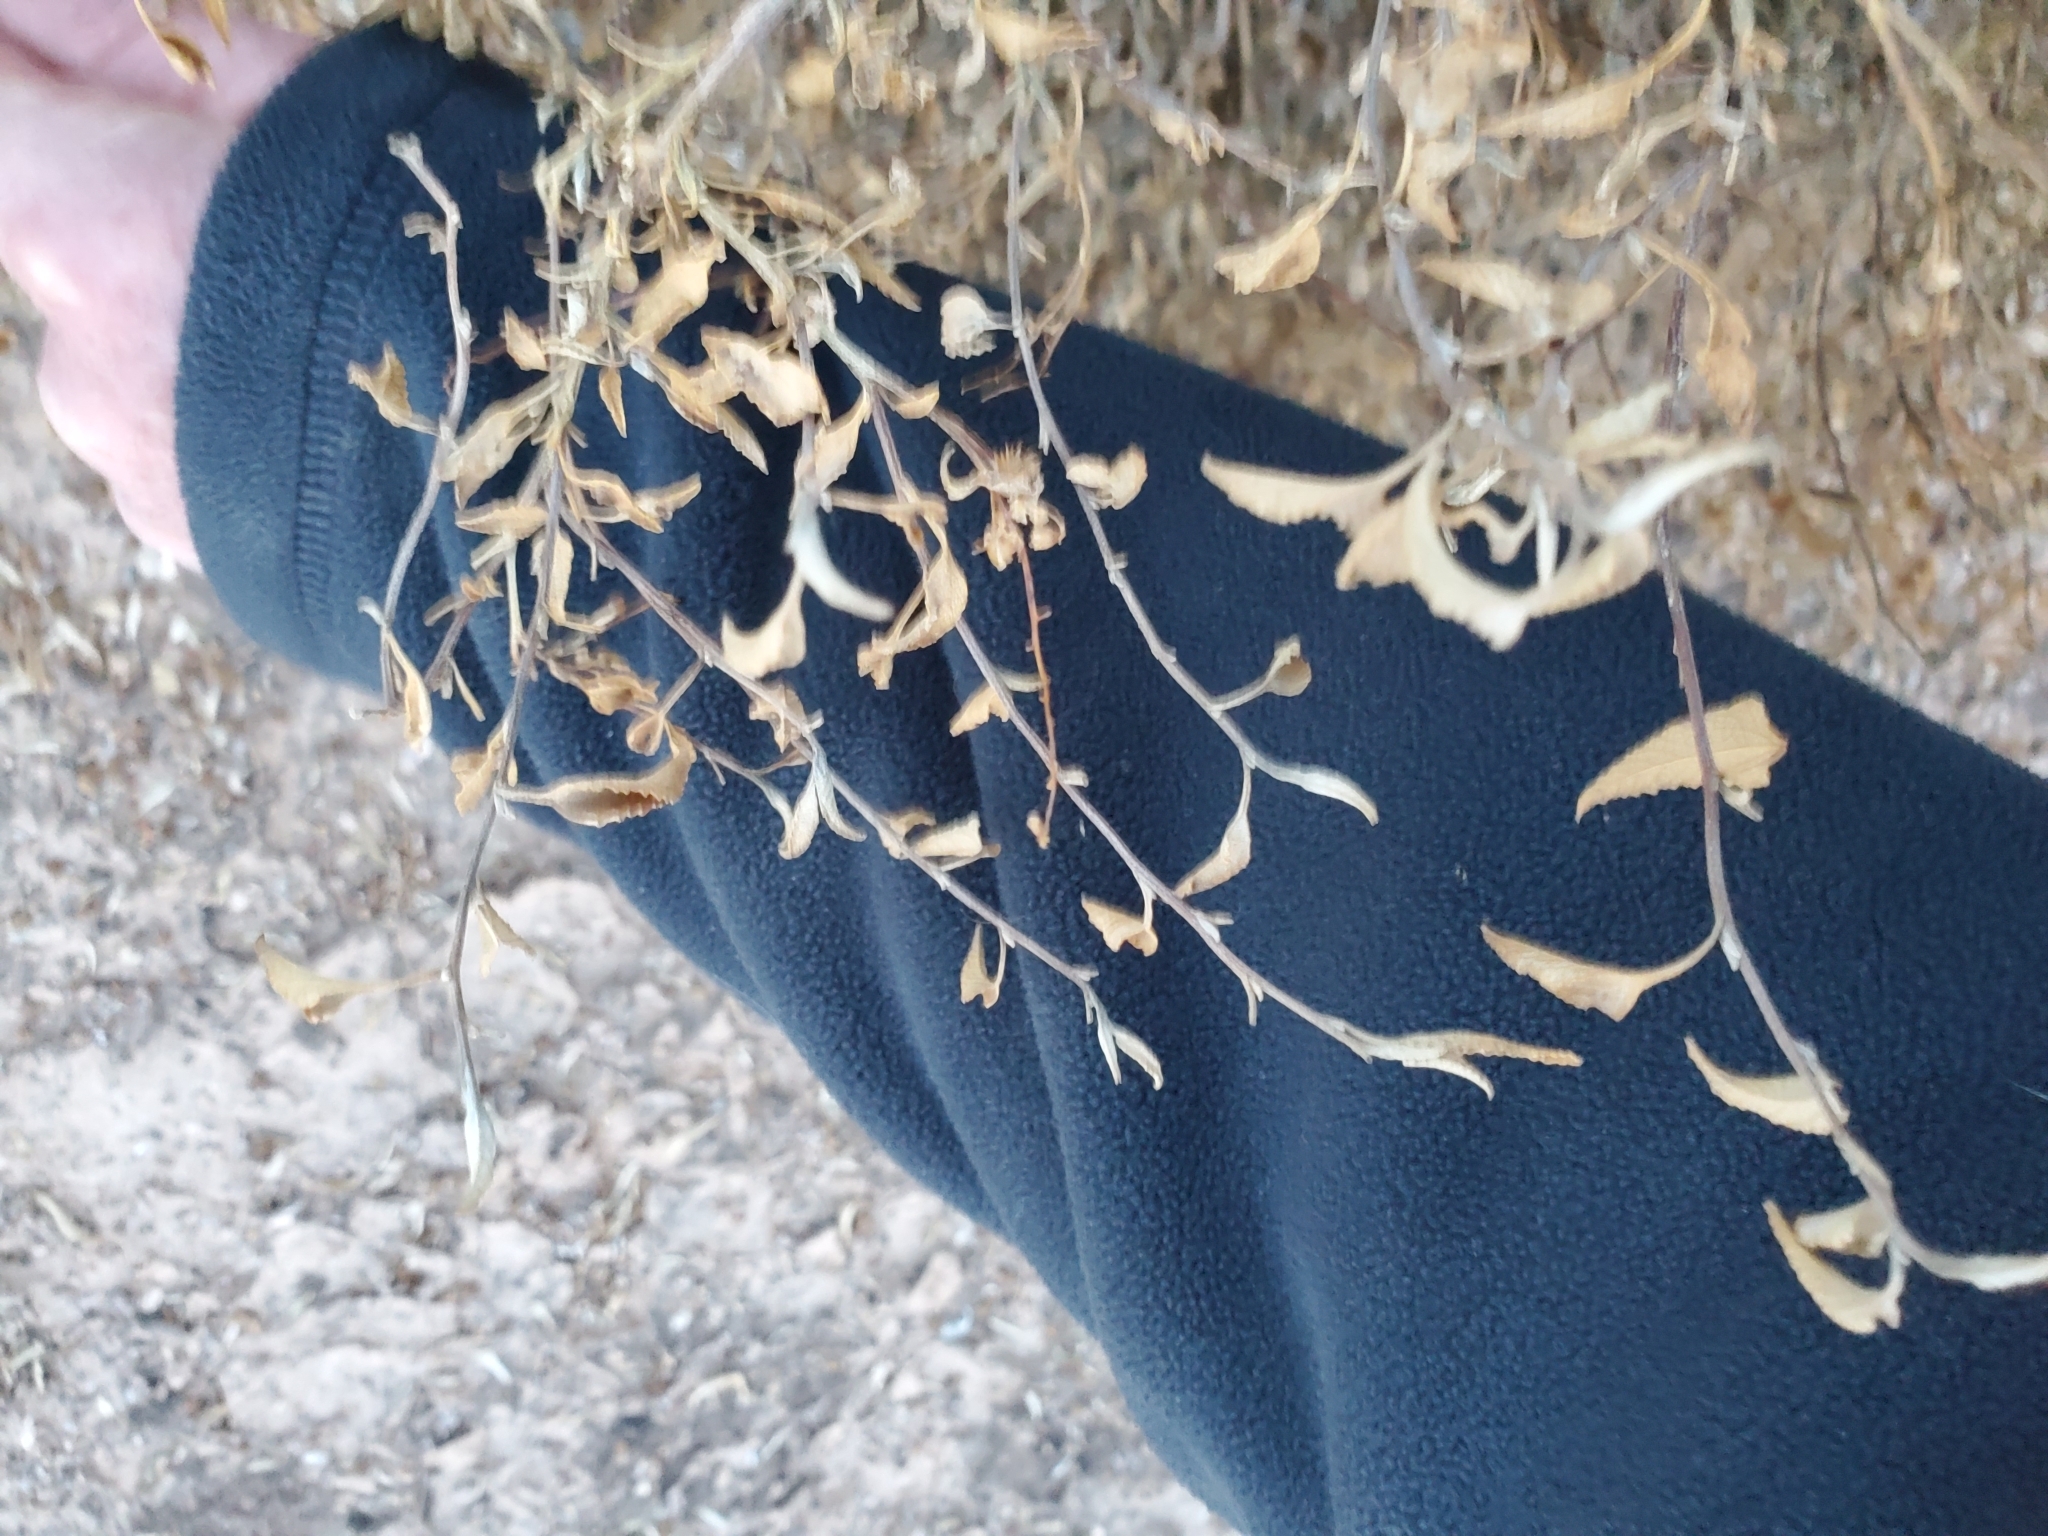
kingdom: Plantae
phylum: Tracheophyta
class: Magnoliopsida
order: Asterales
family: Asteraceae
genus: Ambrosia
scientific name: Ambrosia deltoidea
